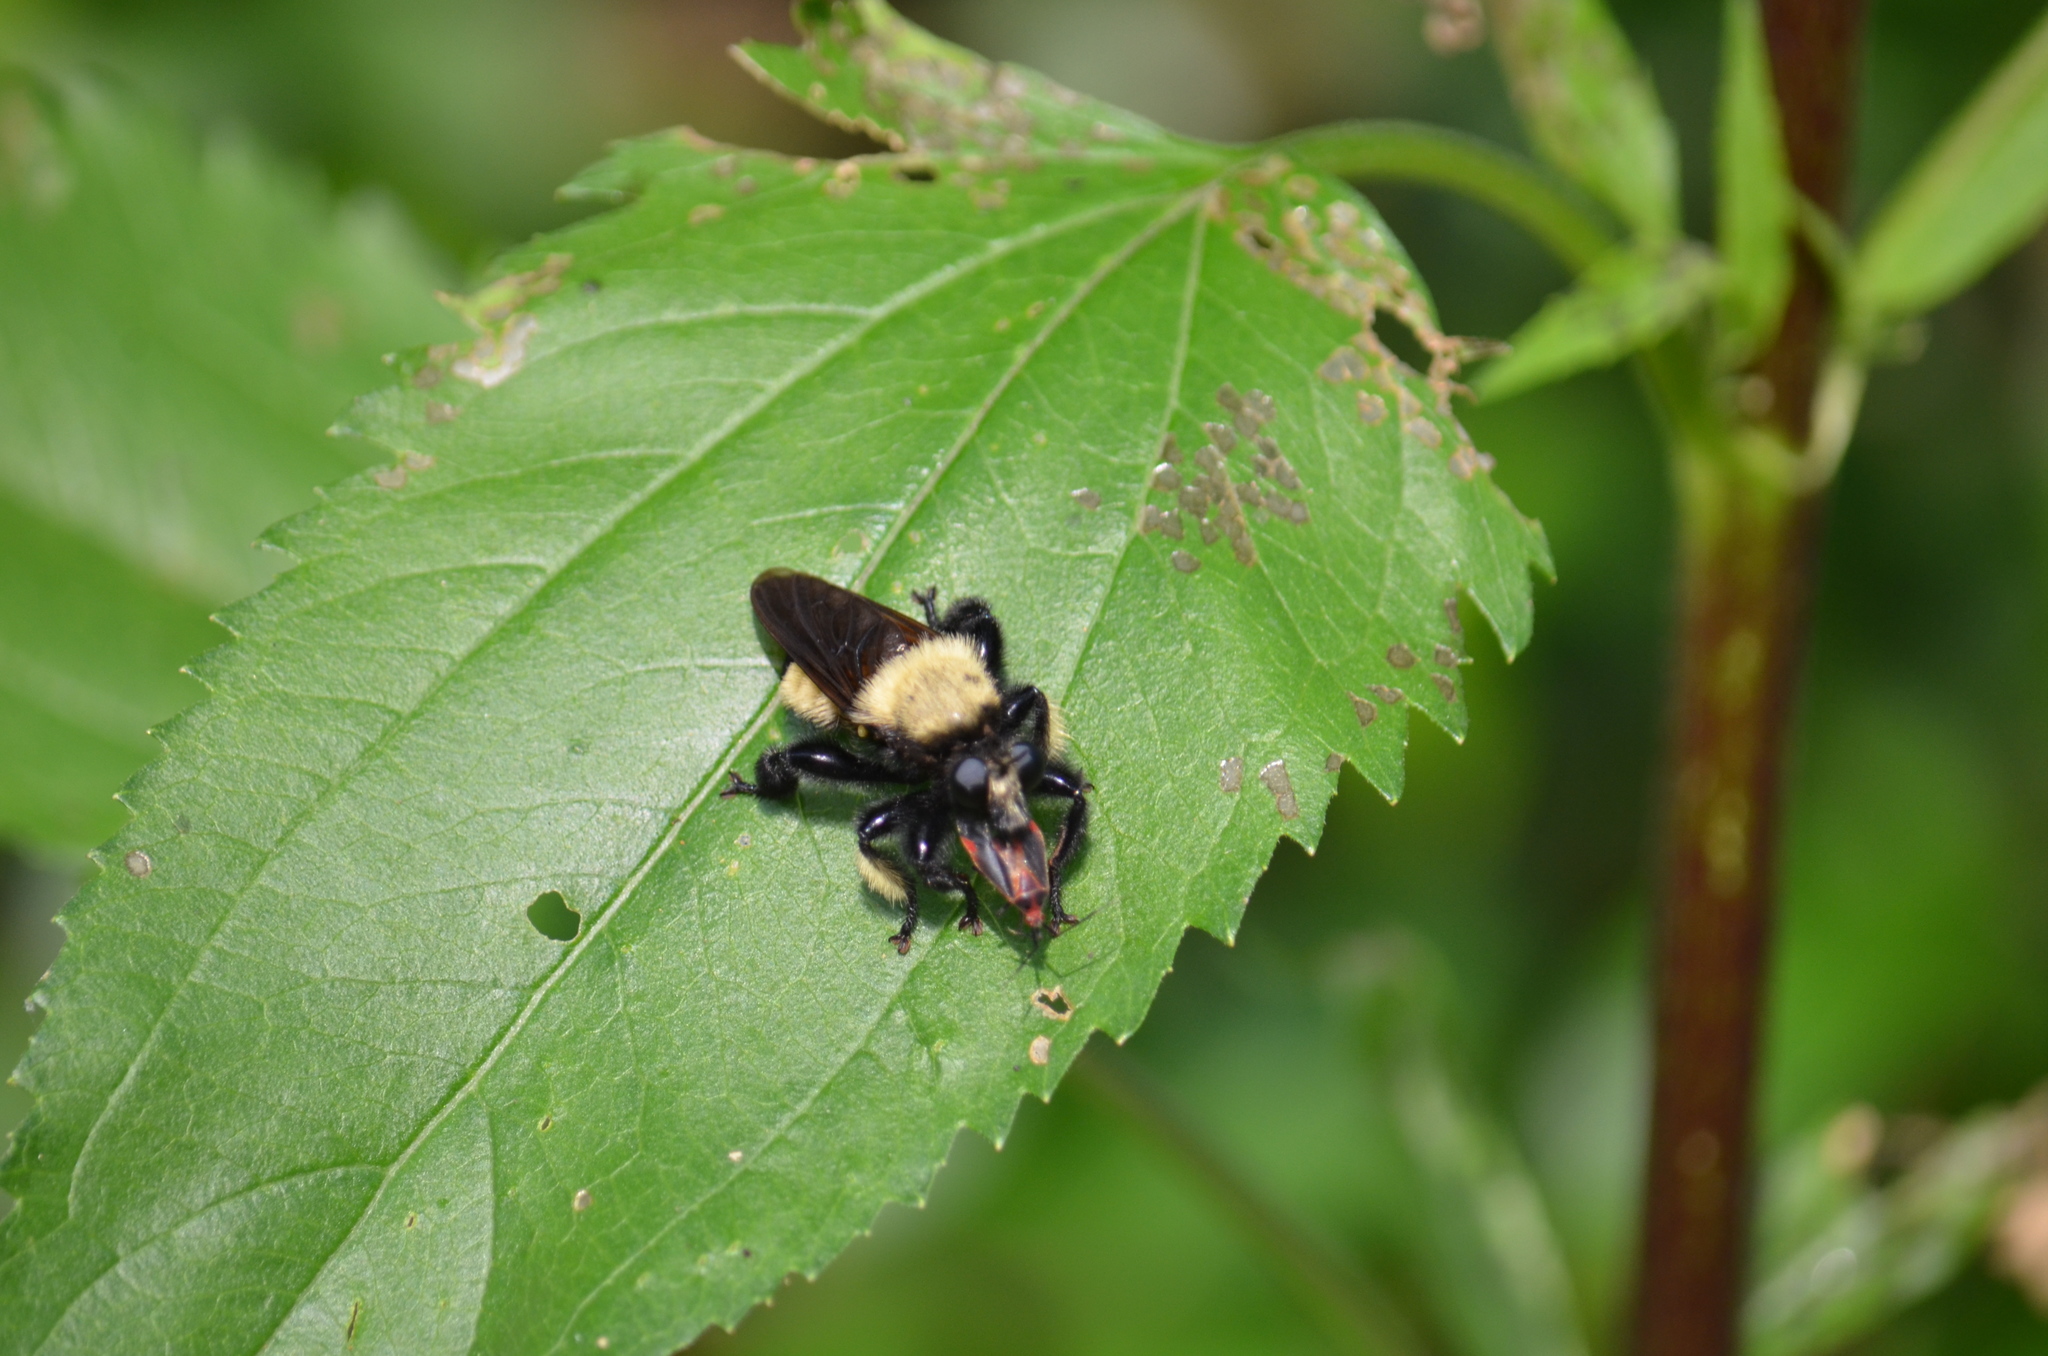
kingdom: Animalia
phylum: Arthropoda
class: Insecta
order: Diptera
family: Asilidae
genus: Laphria
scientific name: Laphria macquarti
